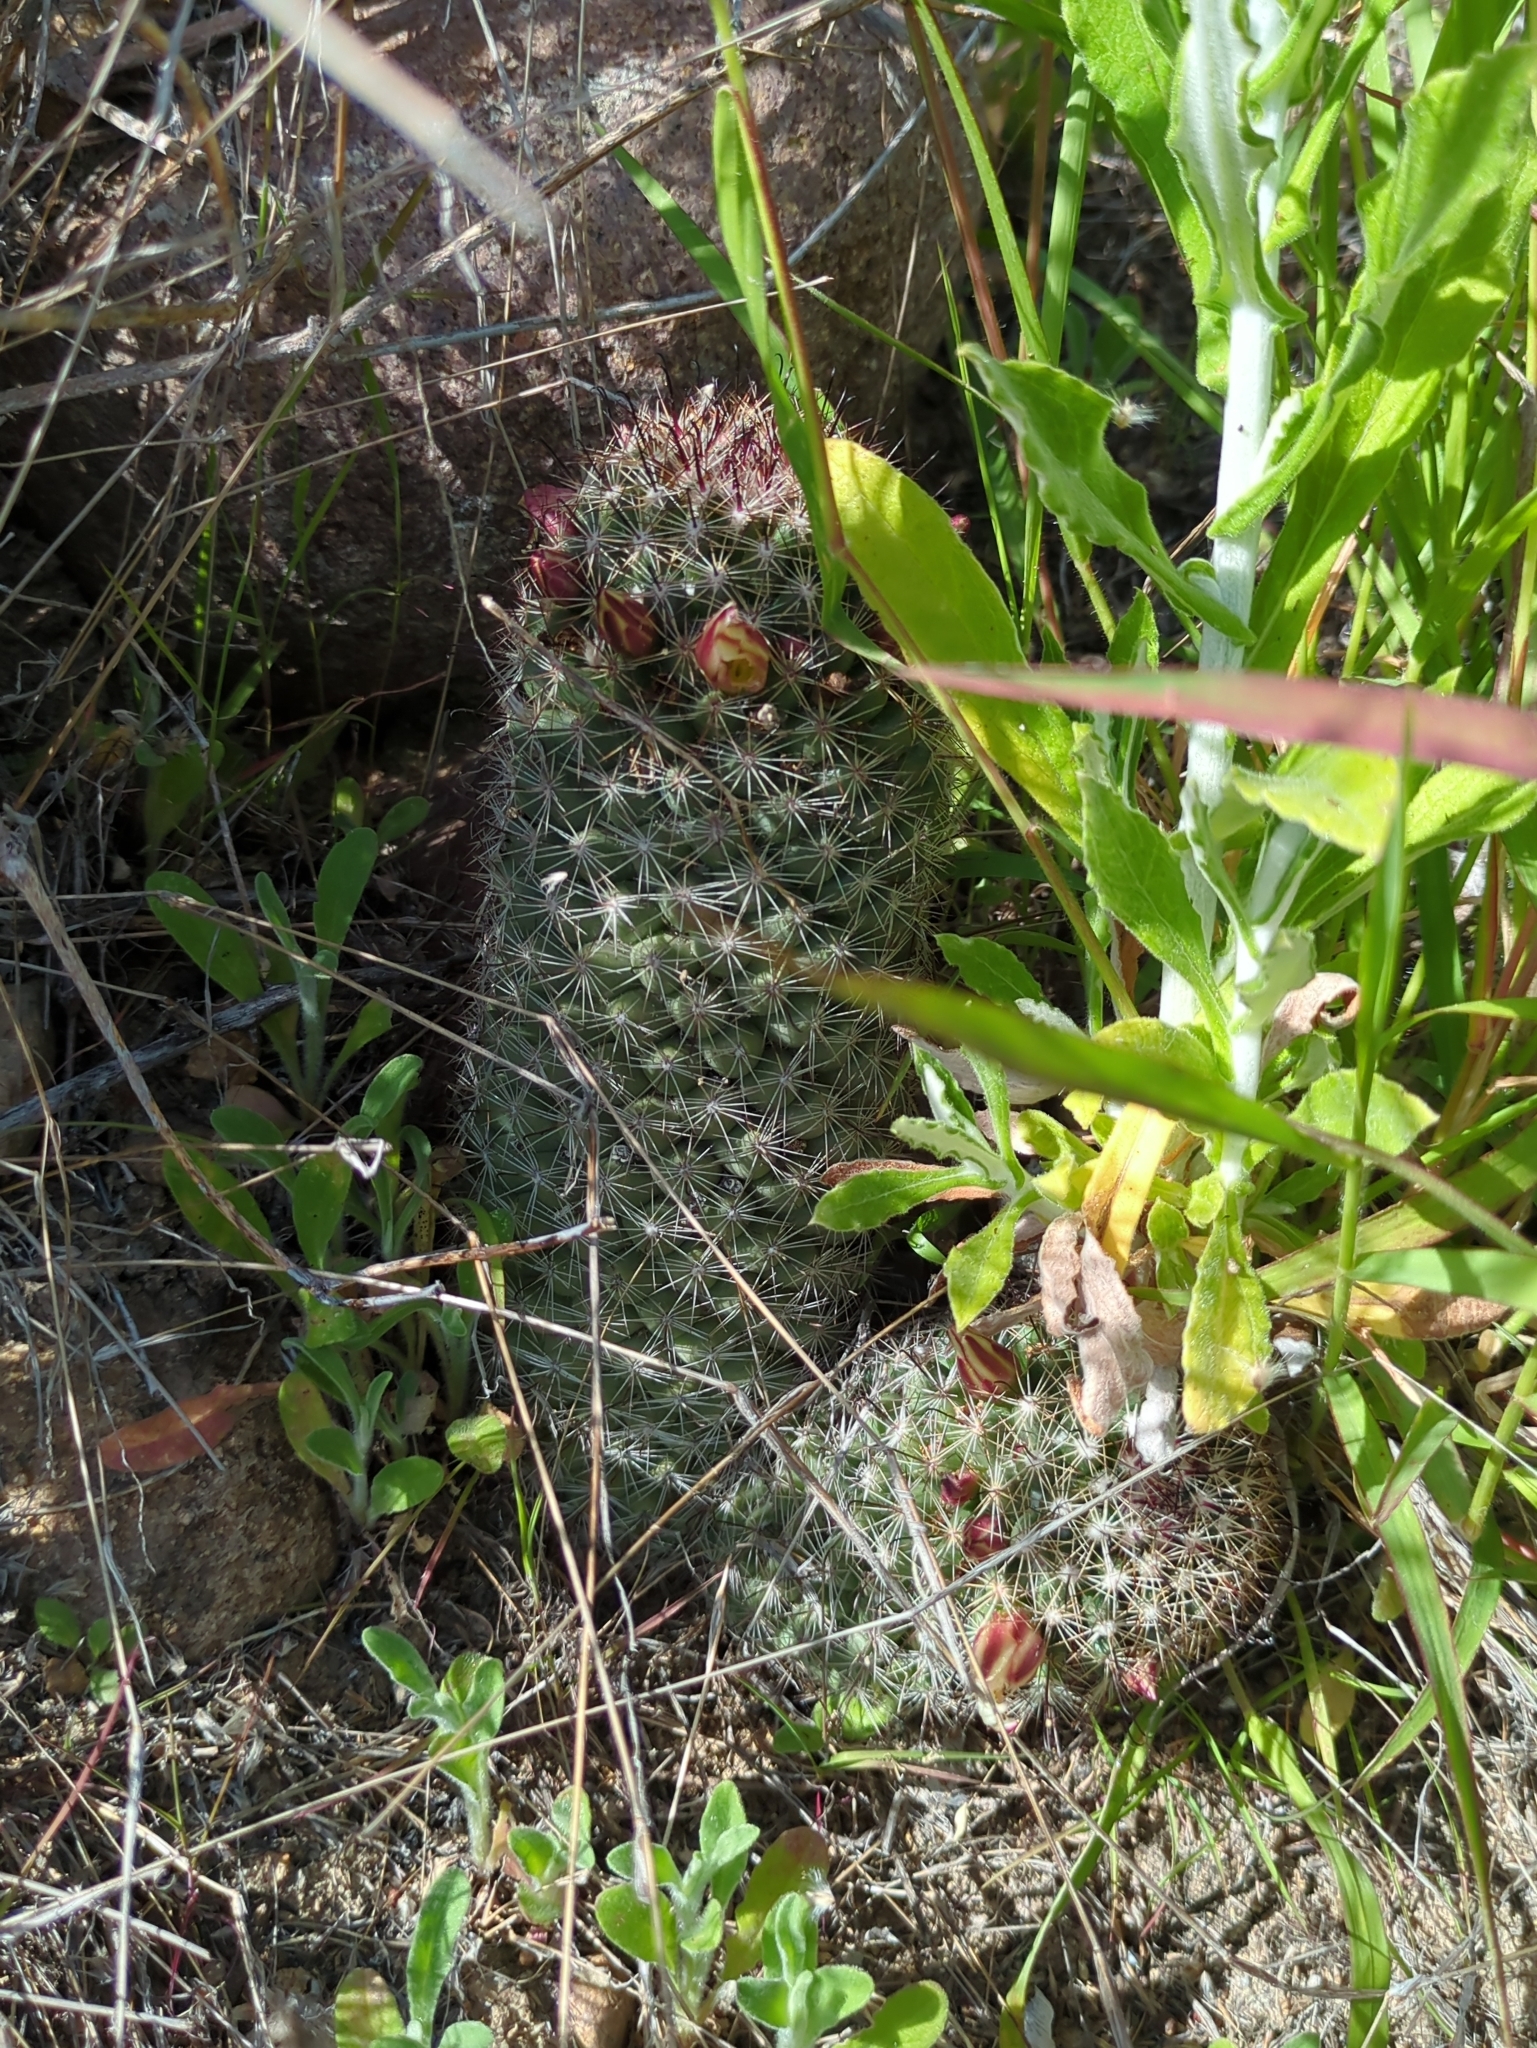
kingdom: Plantae
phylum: Tracheophyta
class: Magnoliopsida
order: Caryophyllales
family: Cactaceae
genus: Cochemiea
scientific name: Cochemiea dioica
